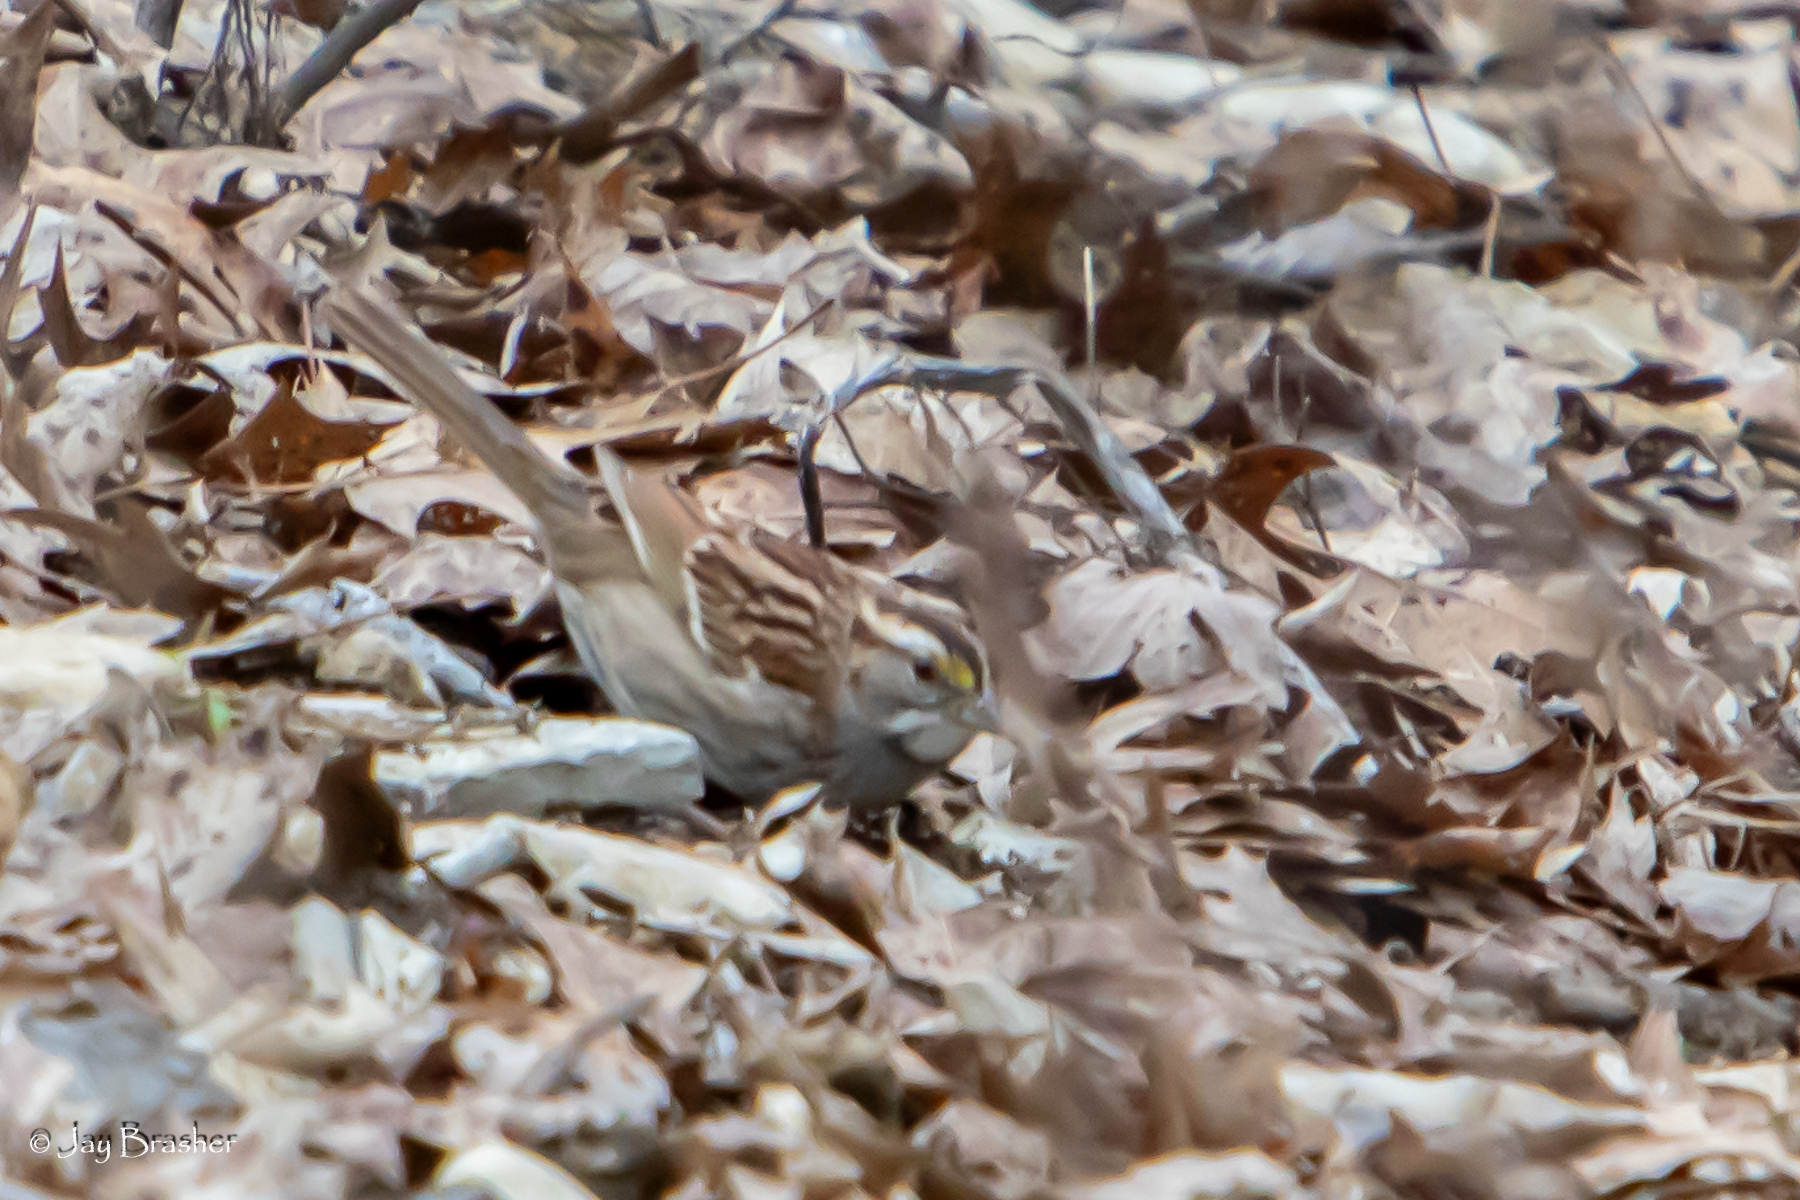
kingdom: Animalia
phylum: Chordata
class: Aves
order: Passeriformes
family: Passerellidae
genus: Zonotrichia
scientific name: Zonotrichia albicollis
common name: White-throated sparrow
